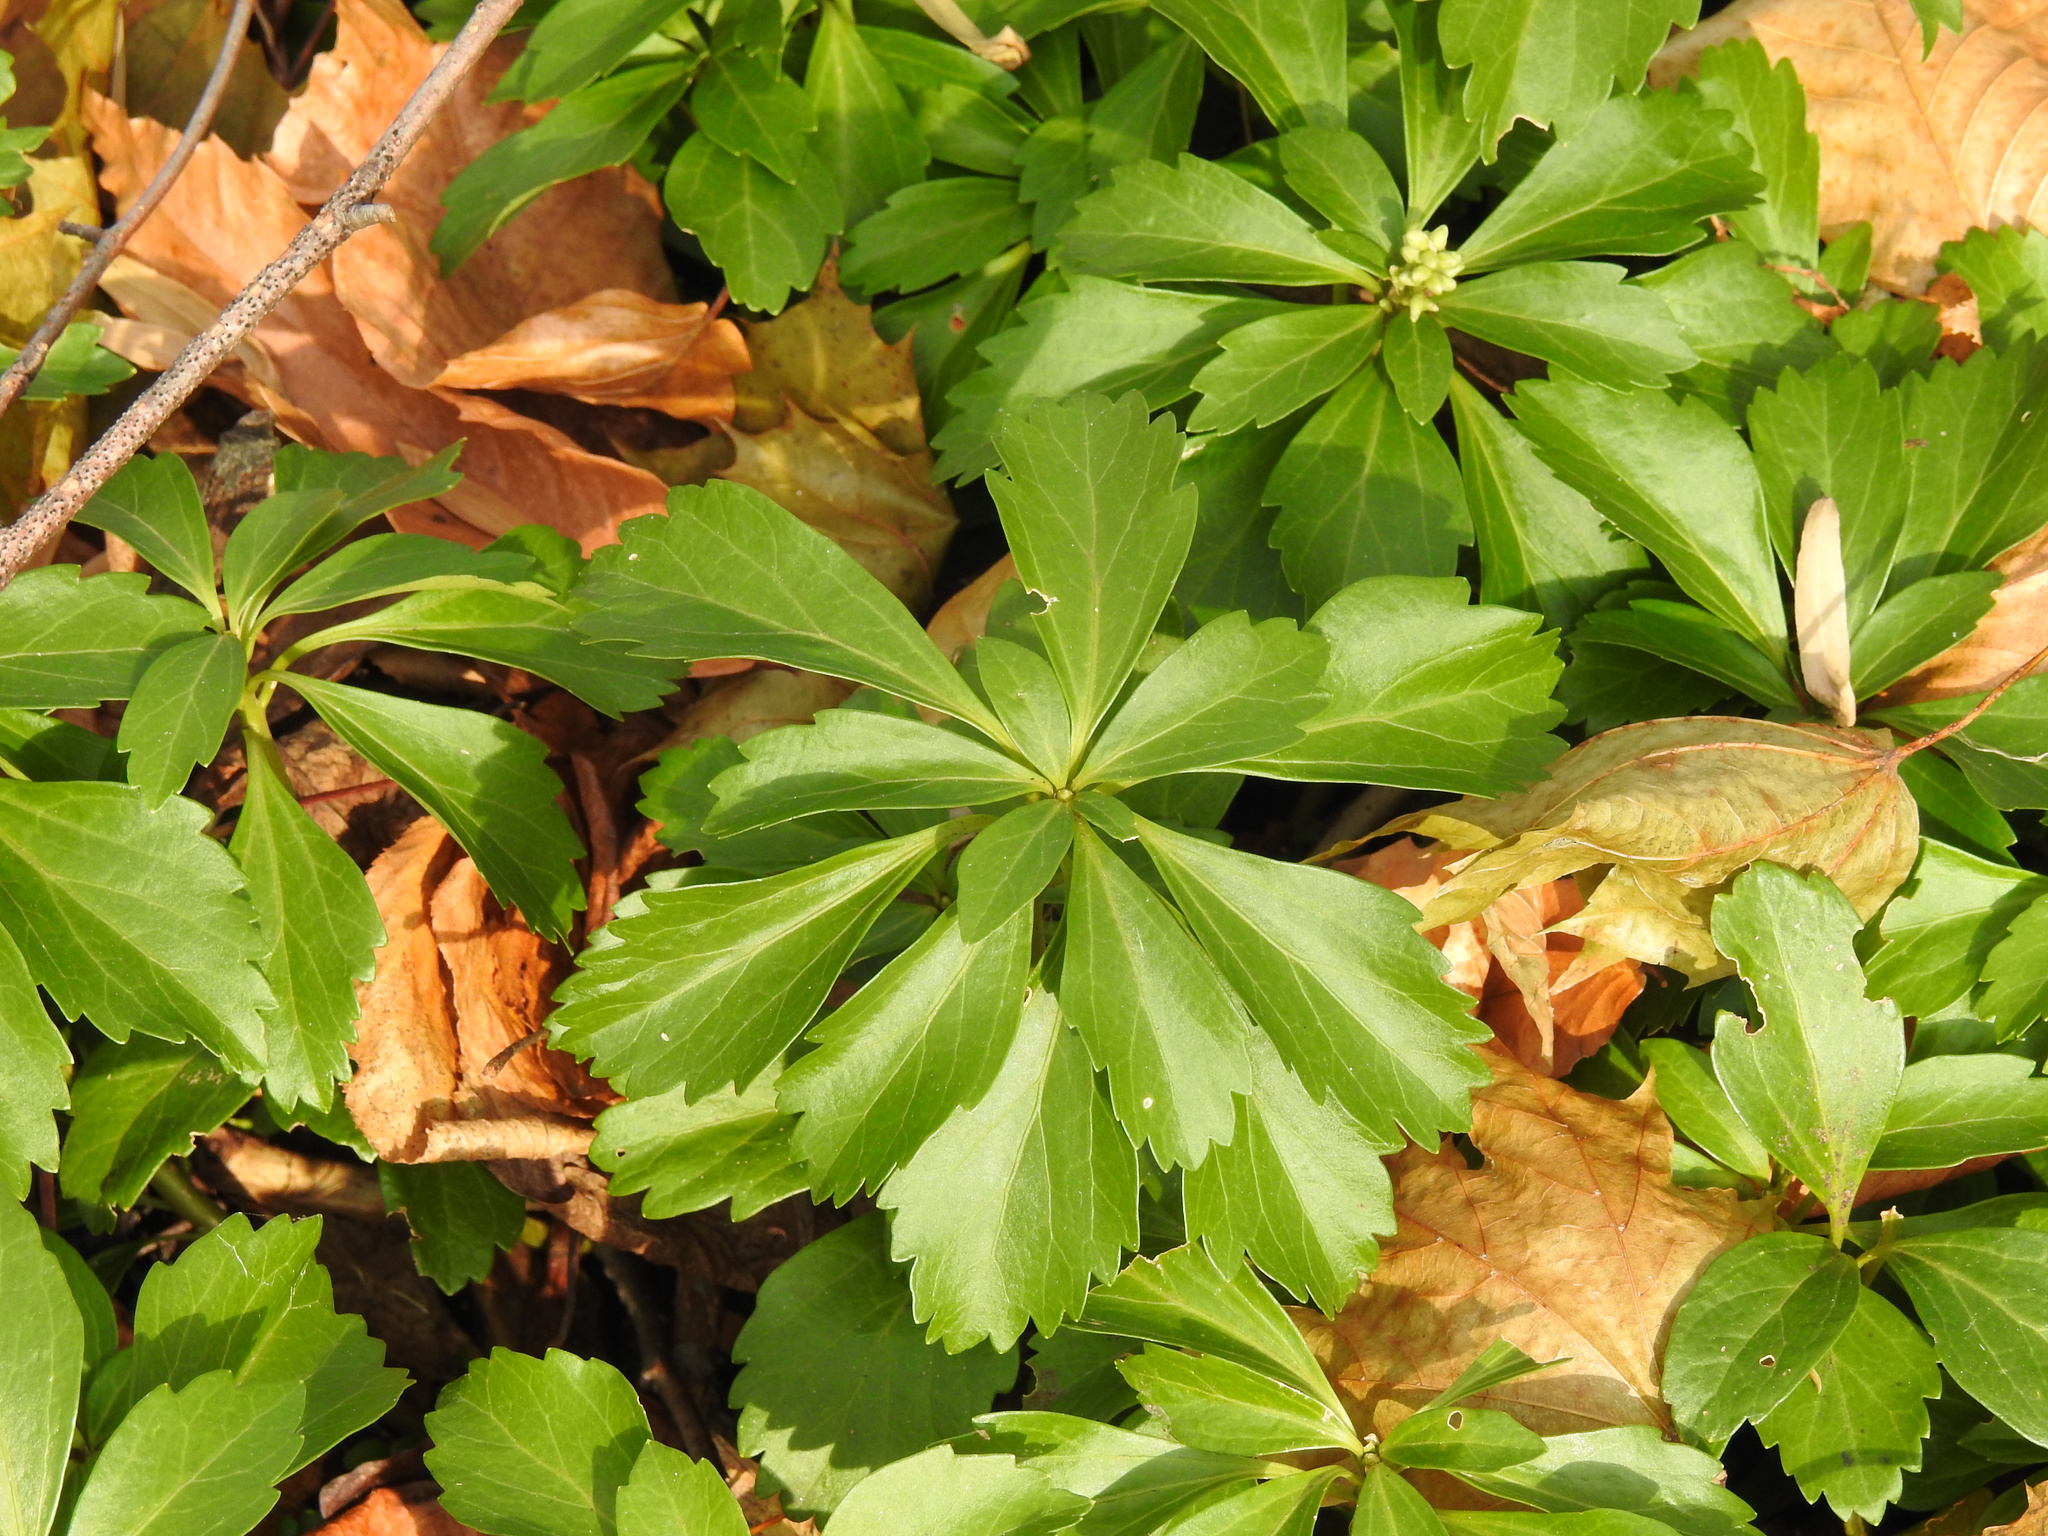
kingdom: Plantae
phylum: Tracheophyta
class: Magnoliopsida
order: Buxales
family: Buxaceae
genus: Pachysandra
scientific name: Pachysandra terminalis
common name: Japanese pachysandra
